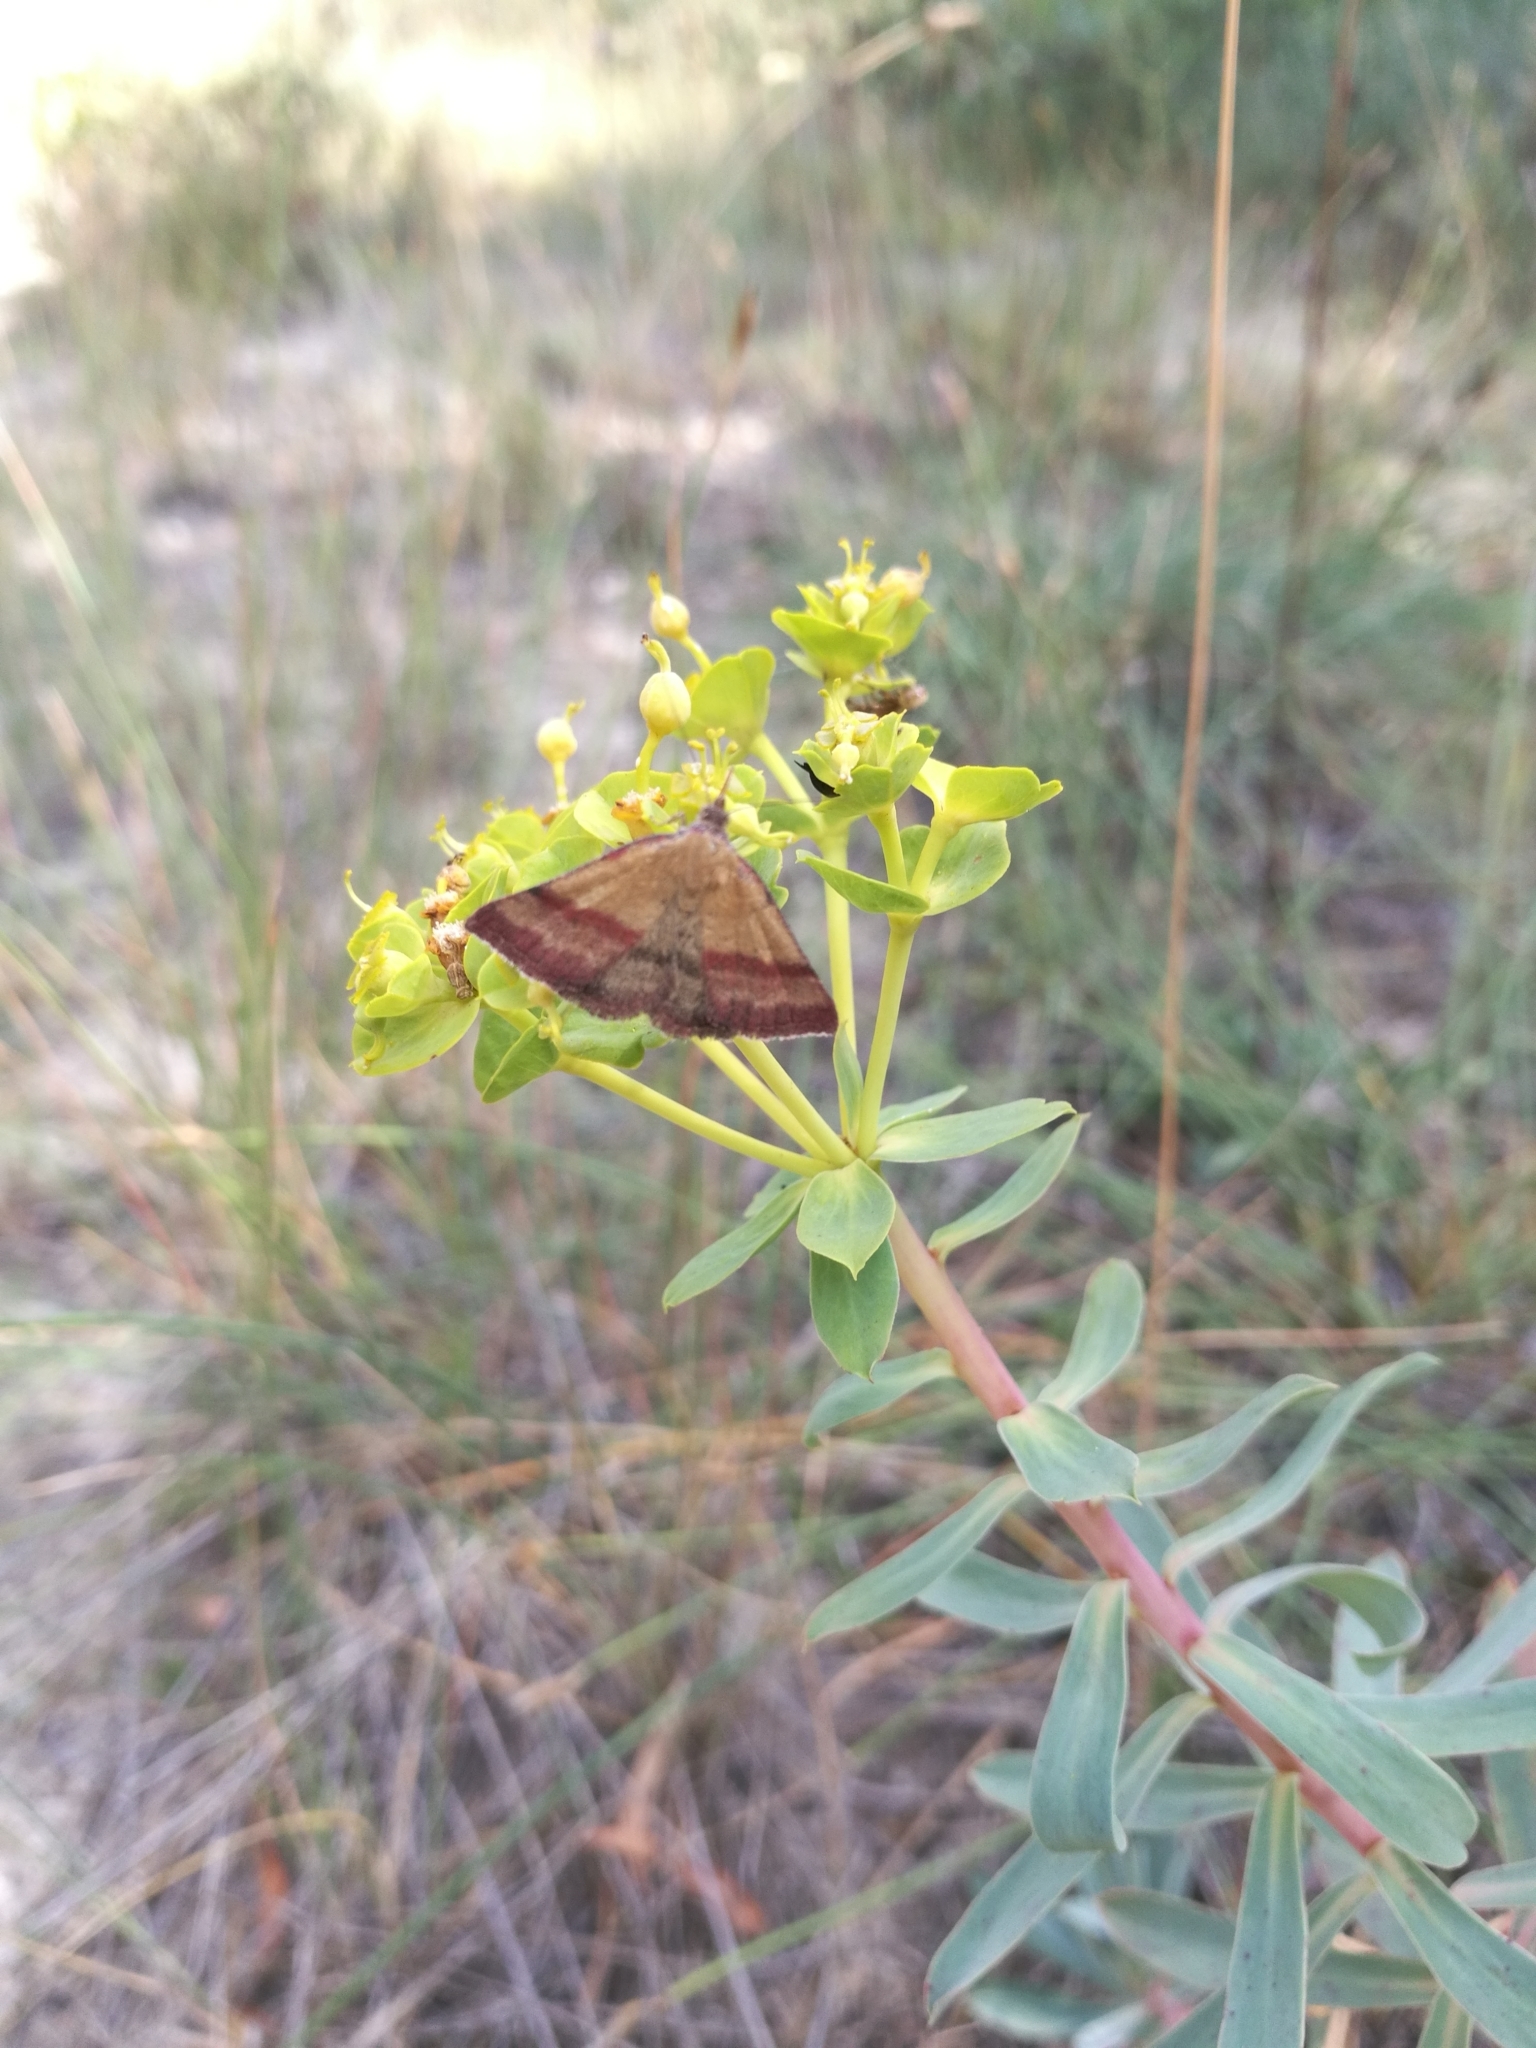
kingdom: Animalia
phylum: Arthropoda
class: Insecta
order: Lepidoptera
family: Erebidae
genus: Phytometra
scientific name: Phytometra viridaria
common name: Small purple-barred
